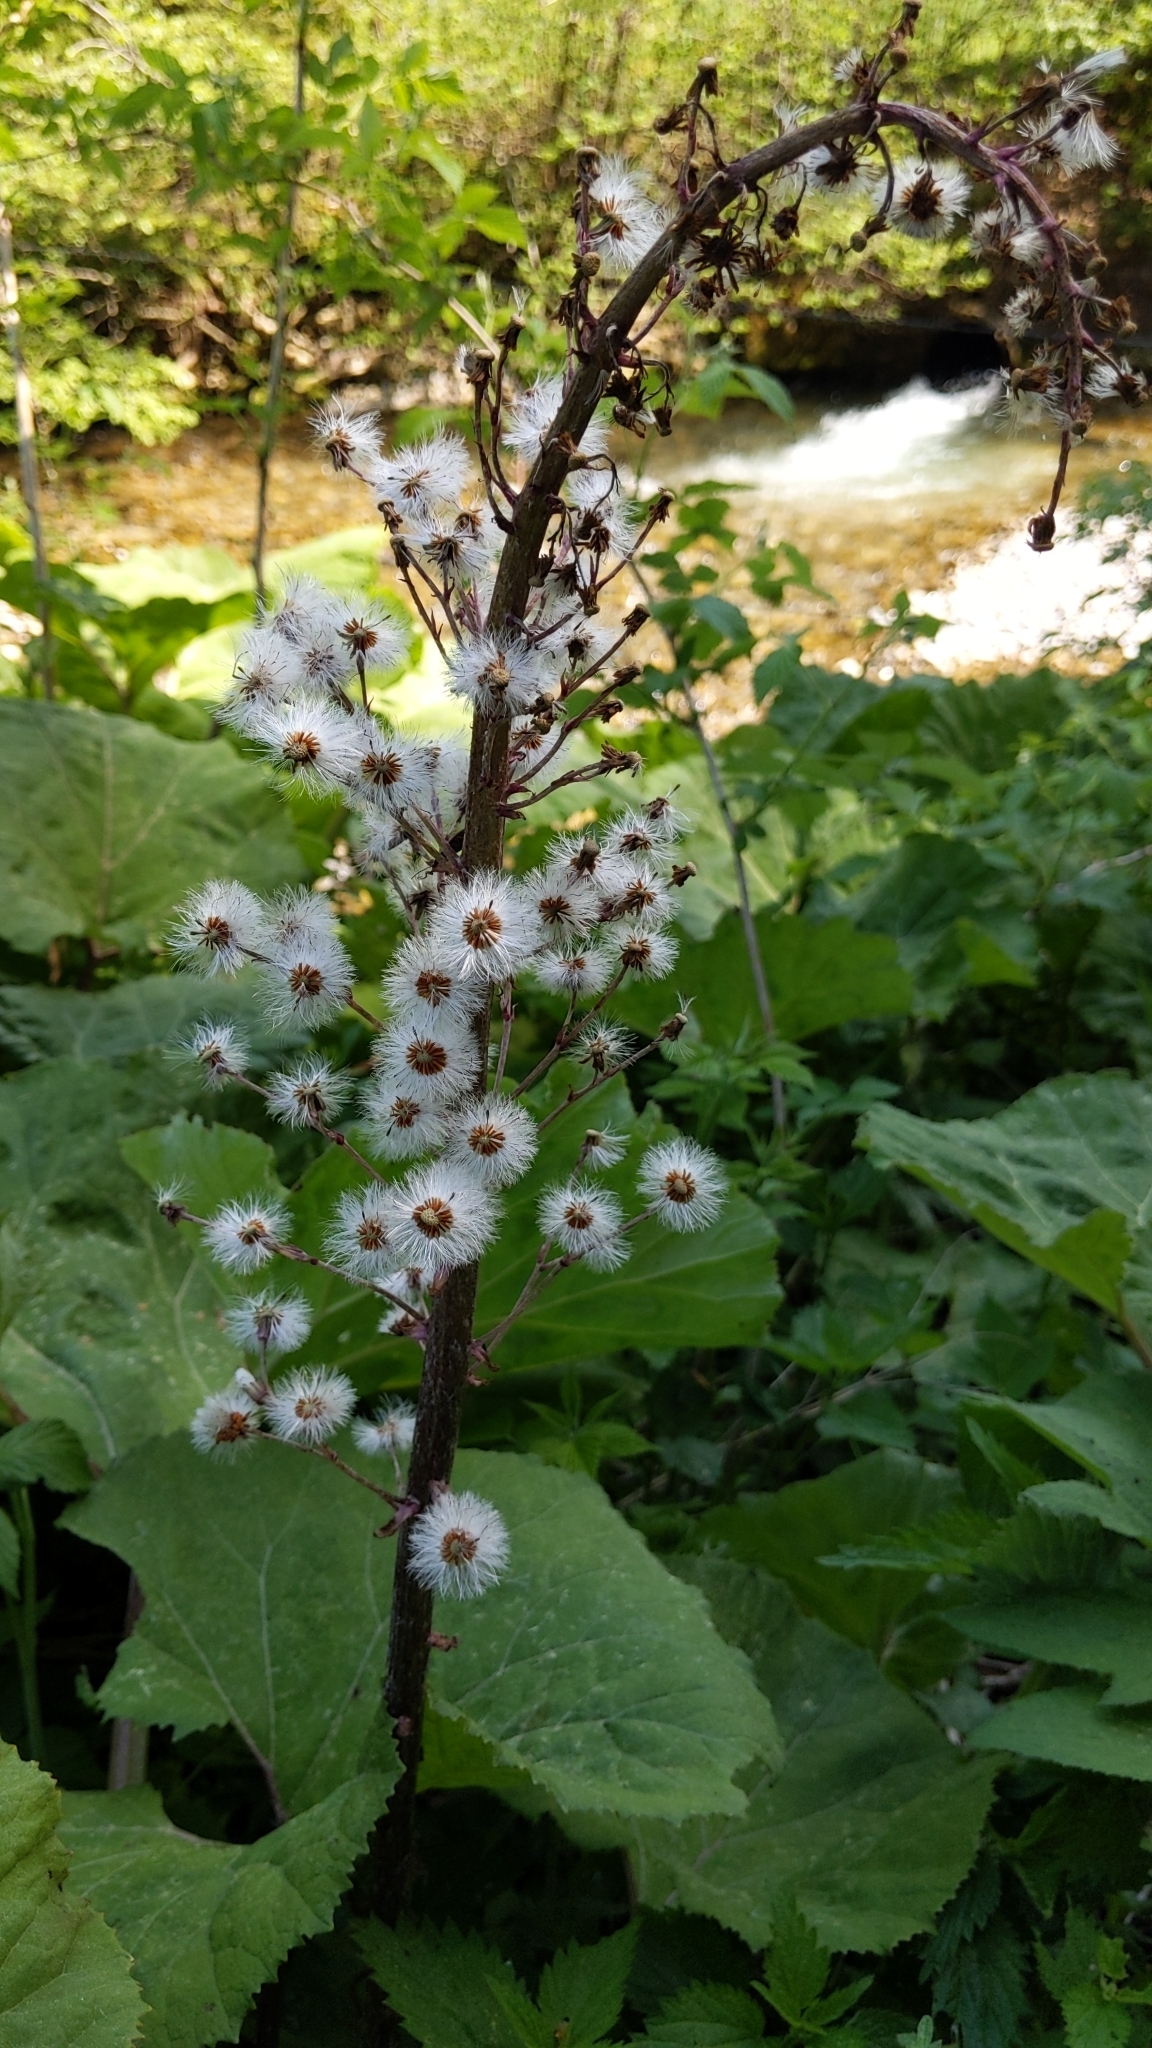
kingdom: Plantae
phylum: Tracheophyta
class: Magnoliopsida
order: Asterales
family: Asteraceae
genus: Petasites
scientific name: Petasites albus
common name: White butterbur
